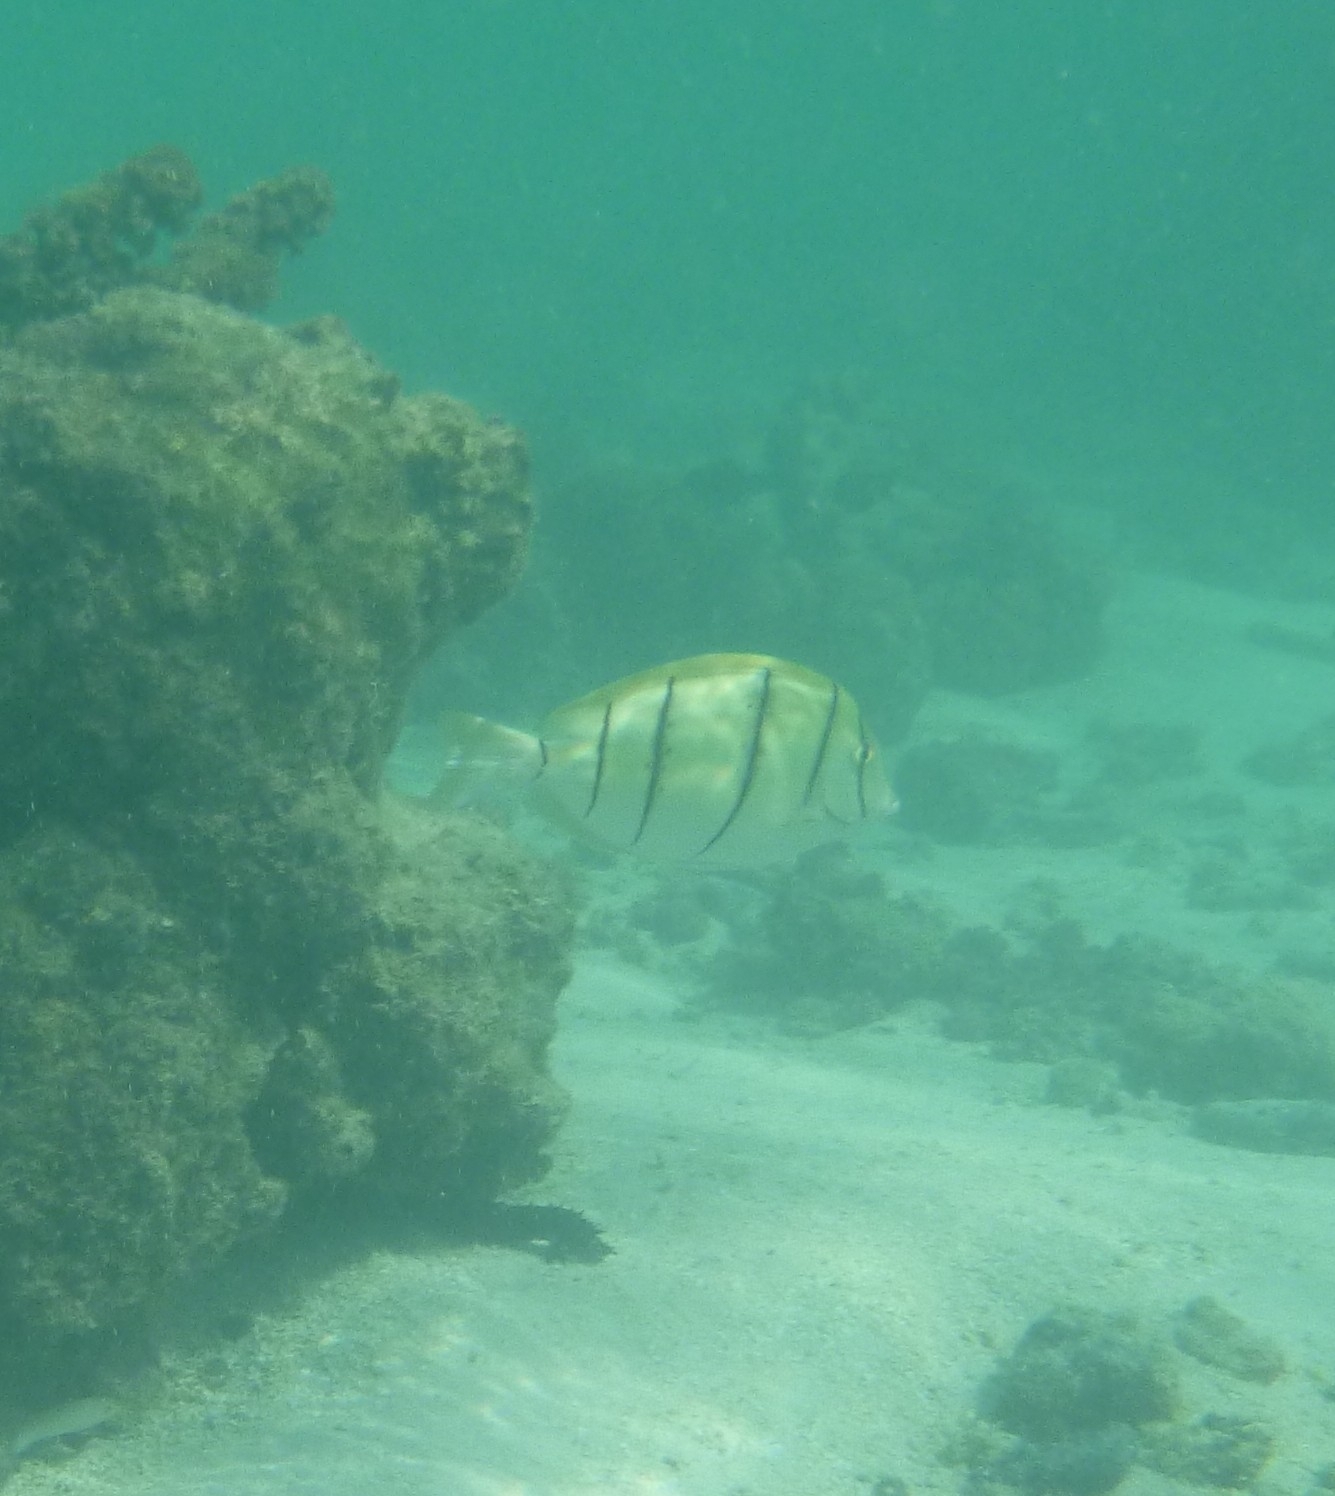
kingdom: Animalia
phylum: Chordata
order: Perciformes
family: Acanthuridae
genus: Acanthurus
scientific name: Acanthurus triostegus
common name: Convict surgeonfish
